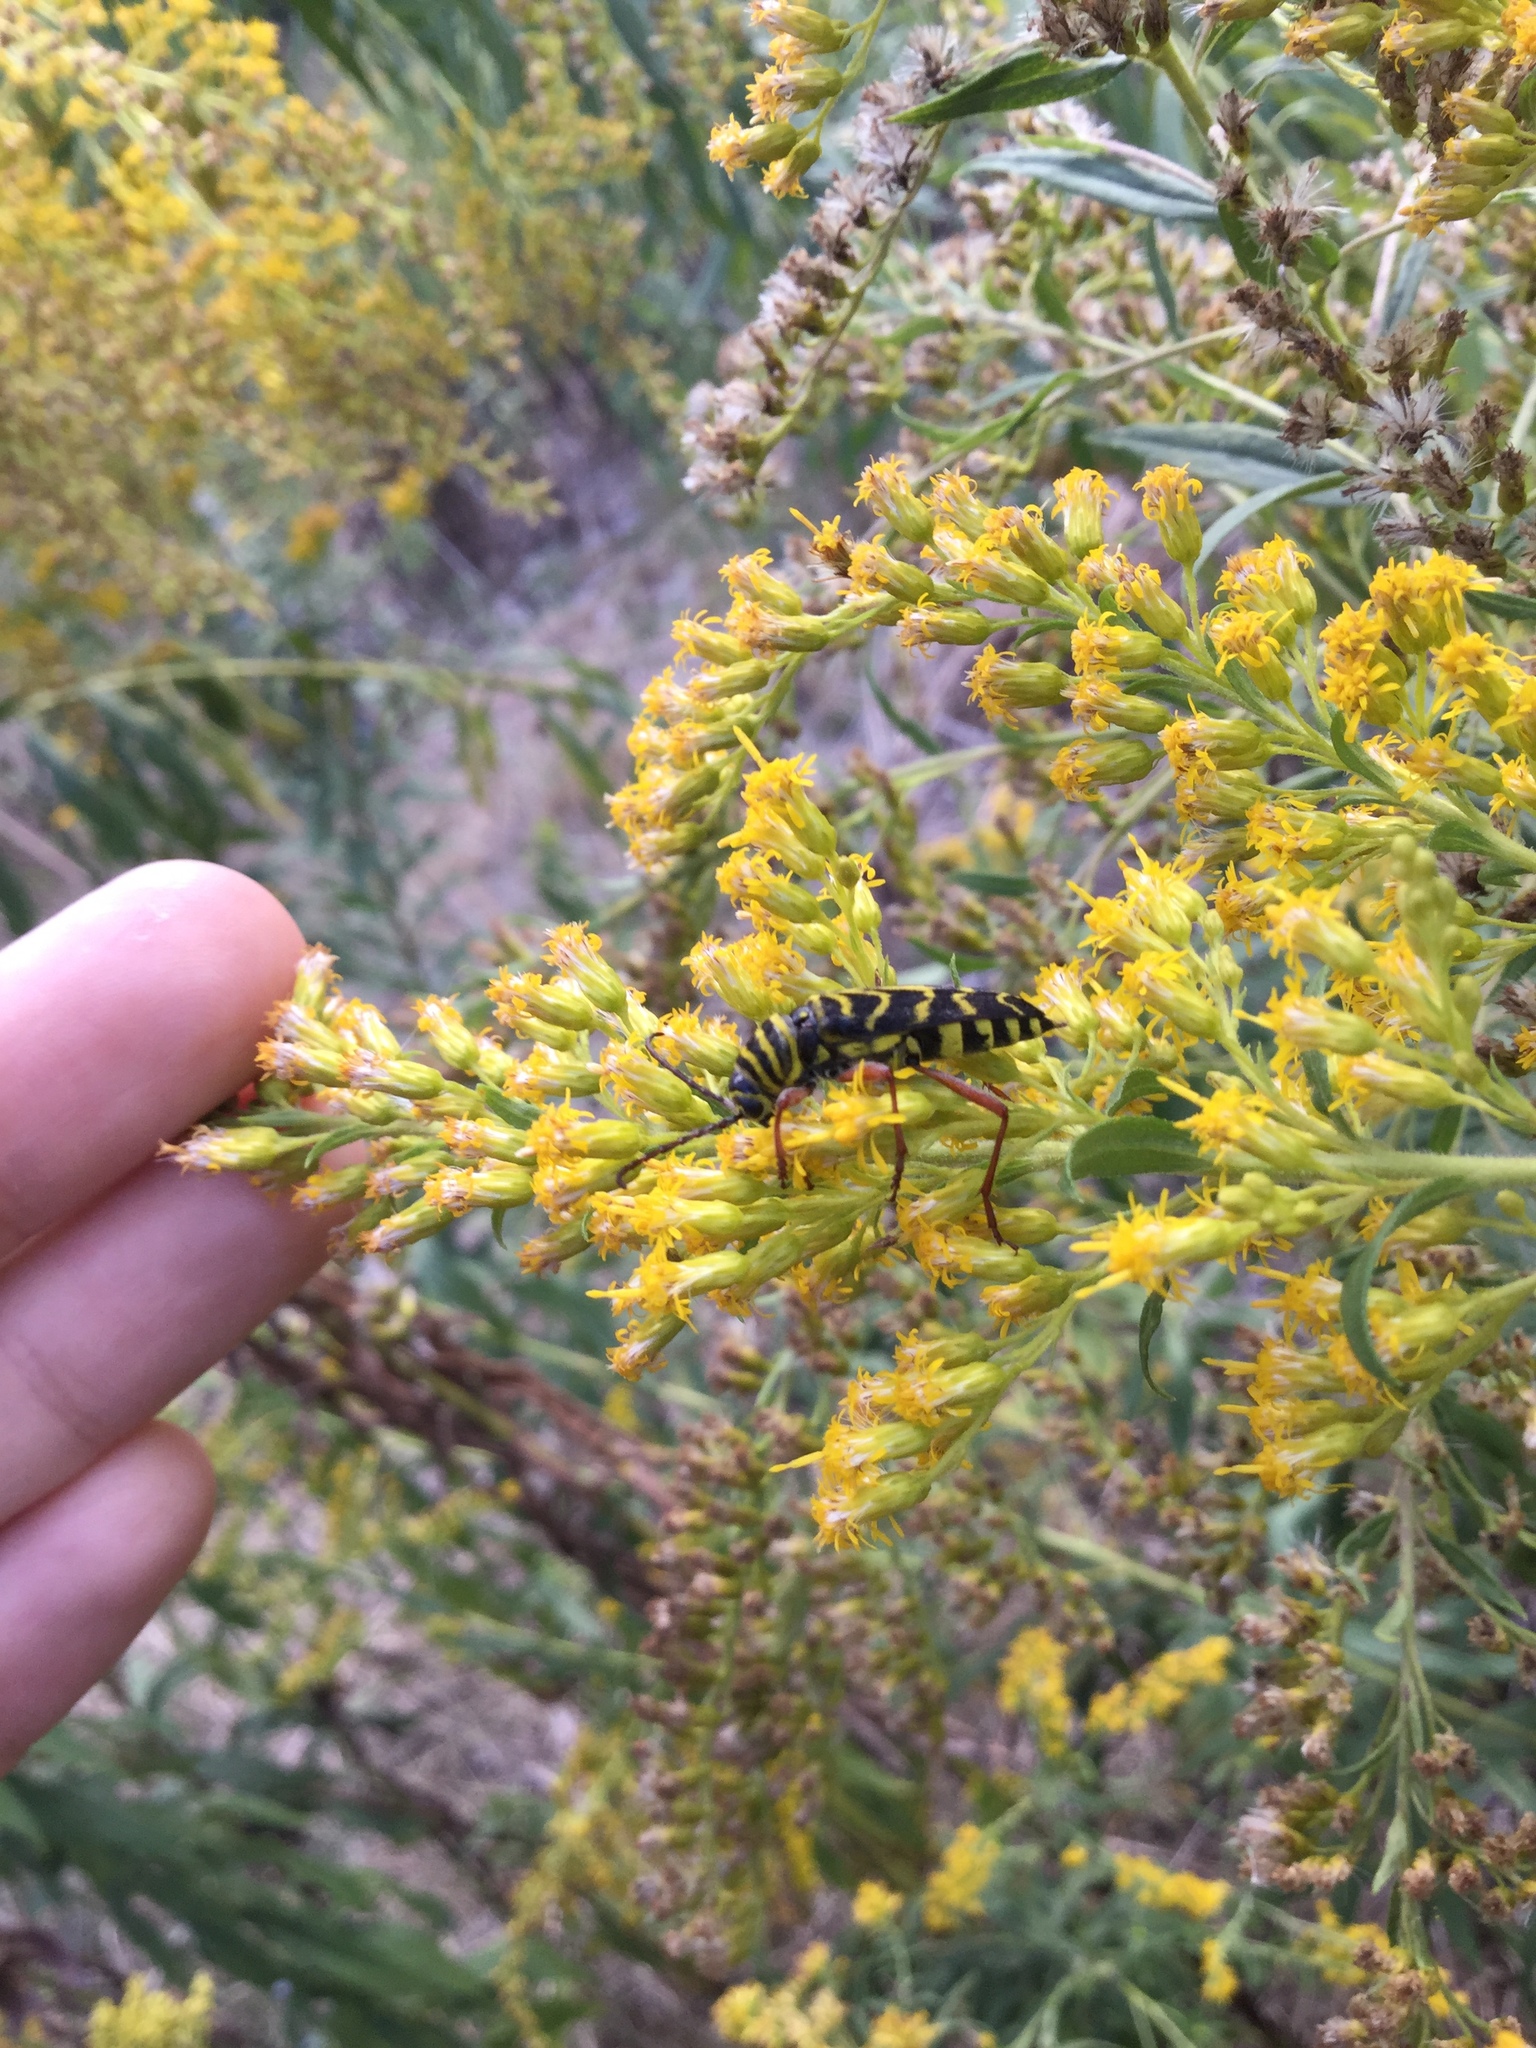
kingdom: Animalia
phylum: Arthropoda
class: Insecta
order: Coleoptera
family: Cerambycidae
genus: Megacyllene
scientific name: Megacyllene robiniae
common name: Locust borer
